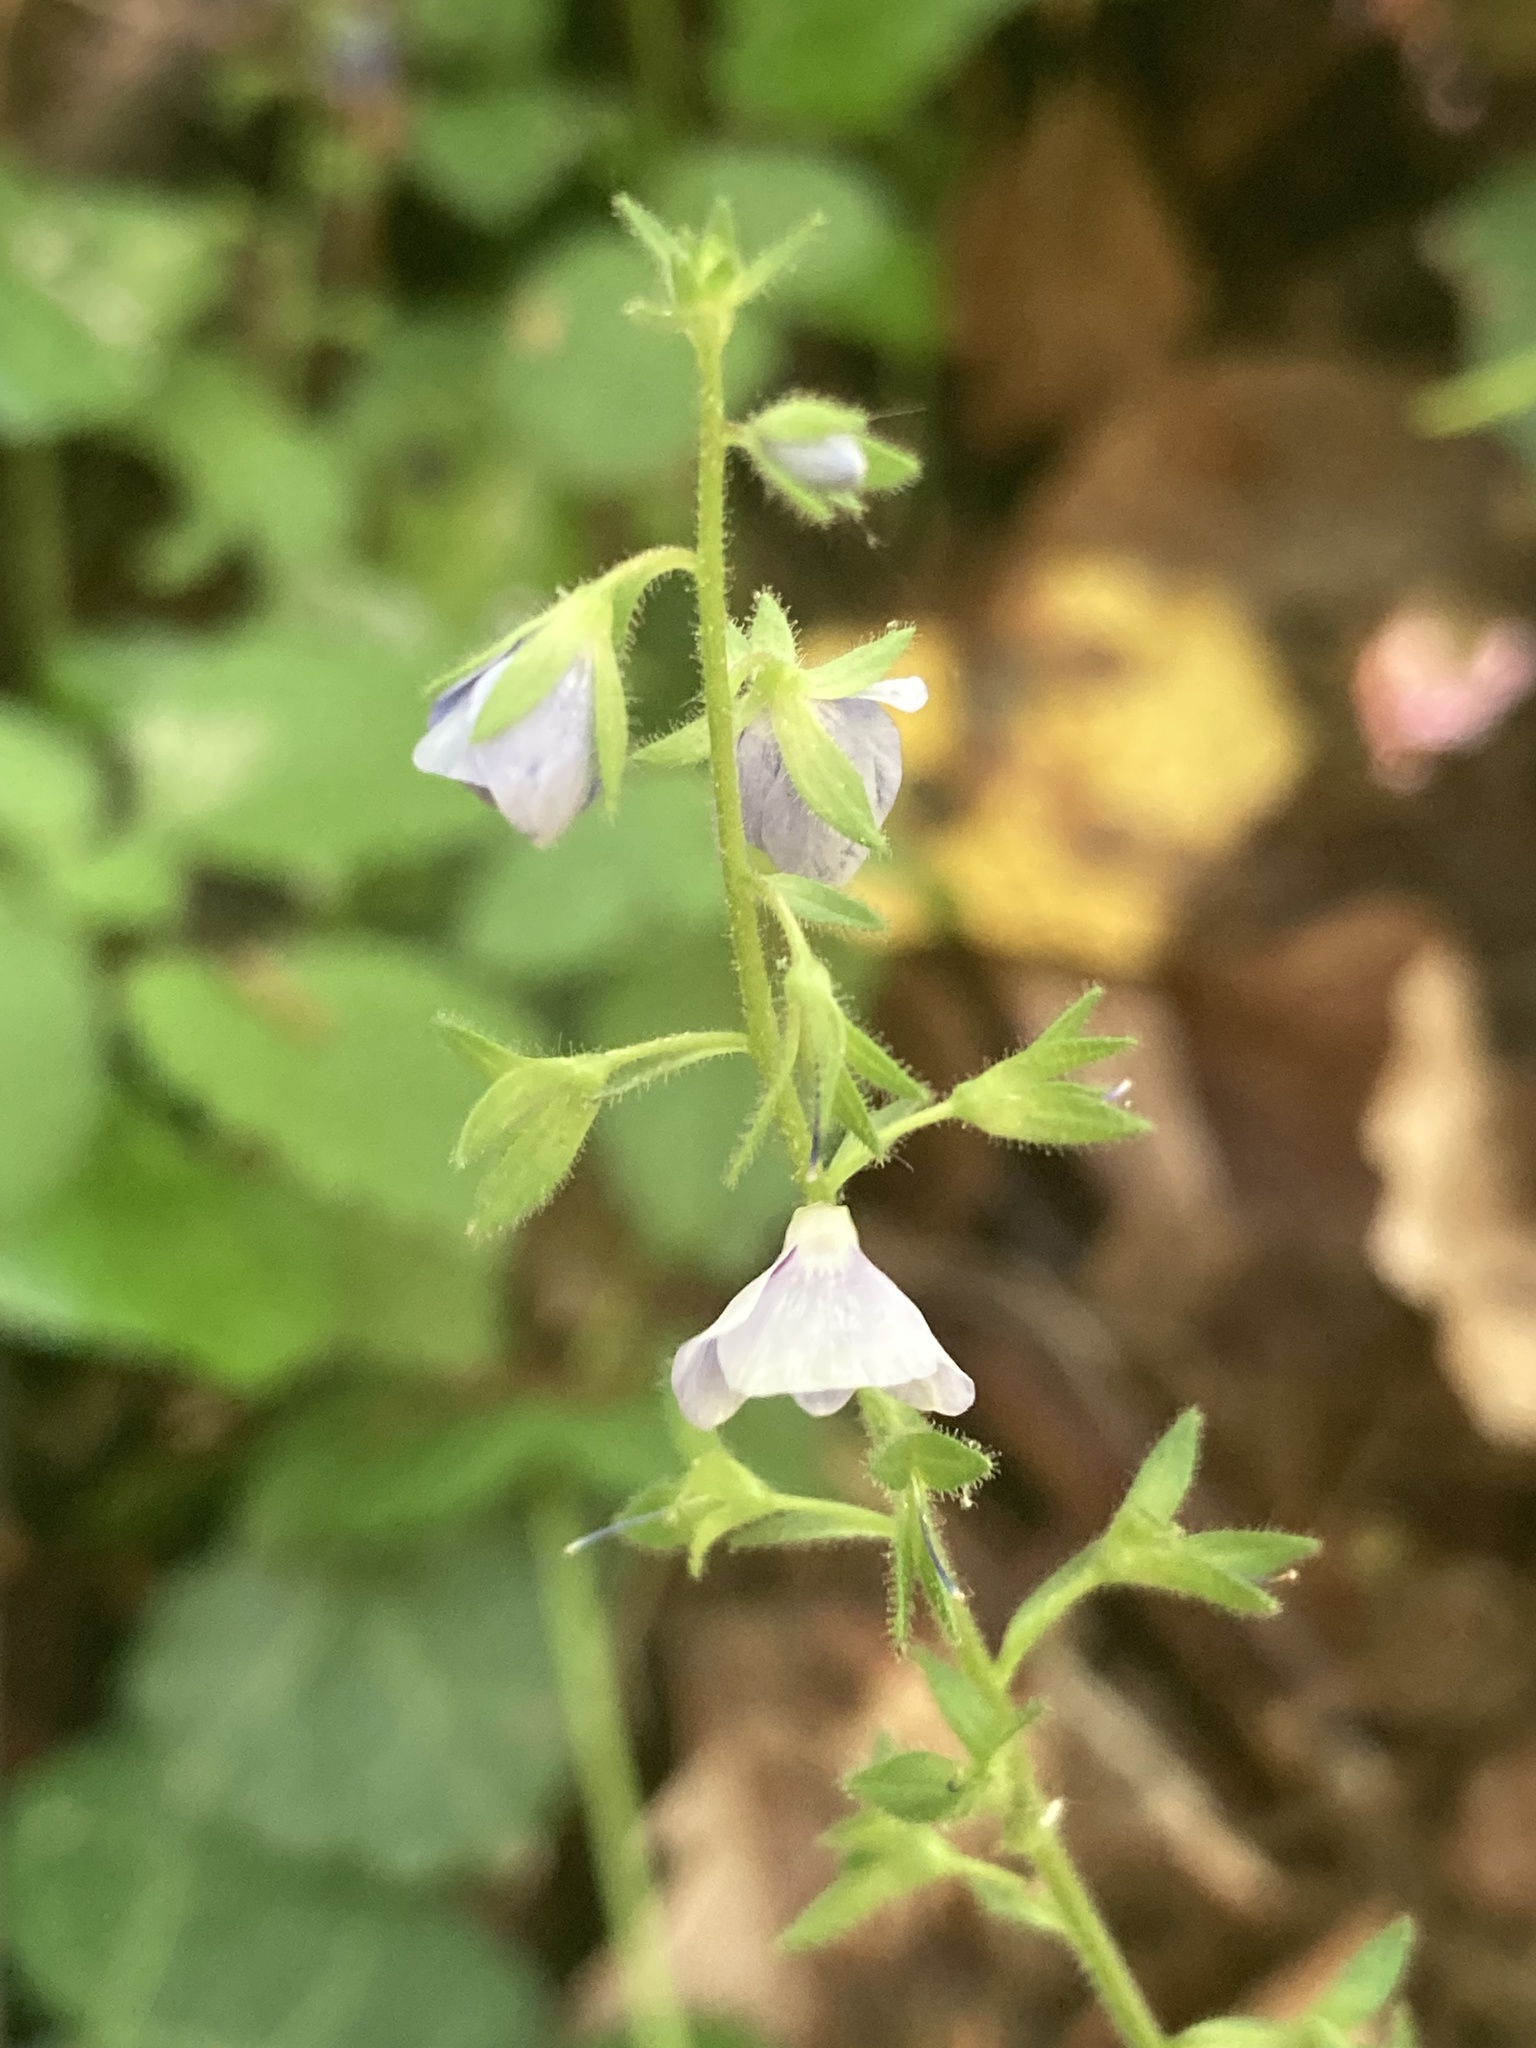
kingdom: Plantae
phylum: Tracheophyta
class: Magnoliopsida
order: Lamiales
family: Plantaginaceae
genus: Veronica
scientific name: Veronica chamaedrys
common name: Germander speedwell
